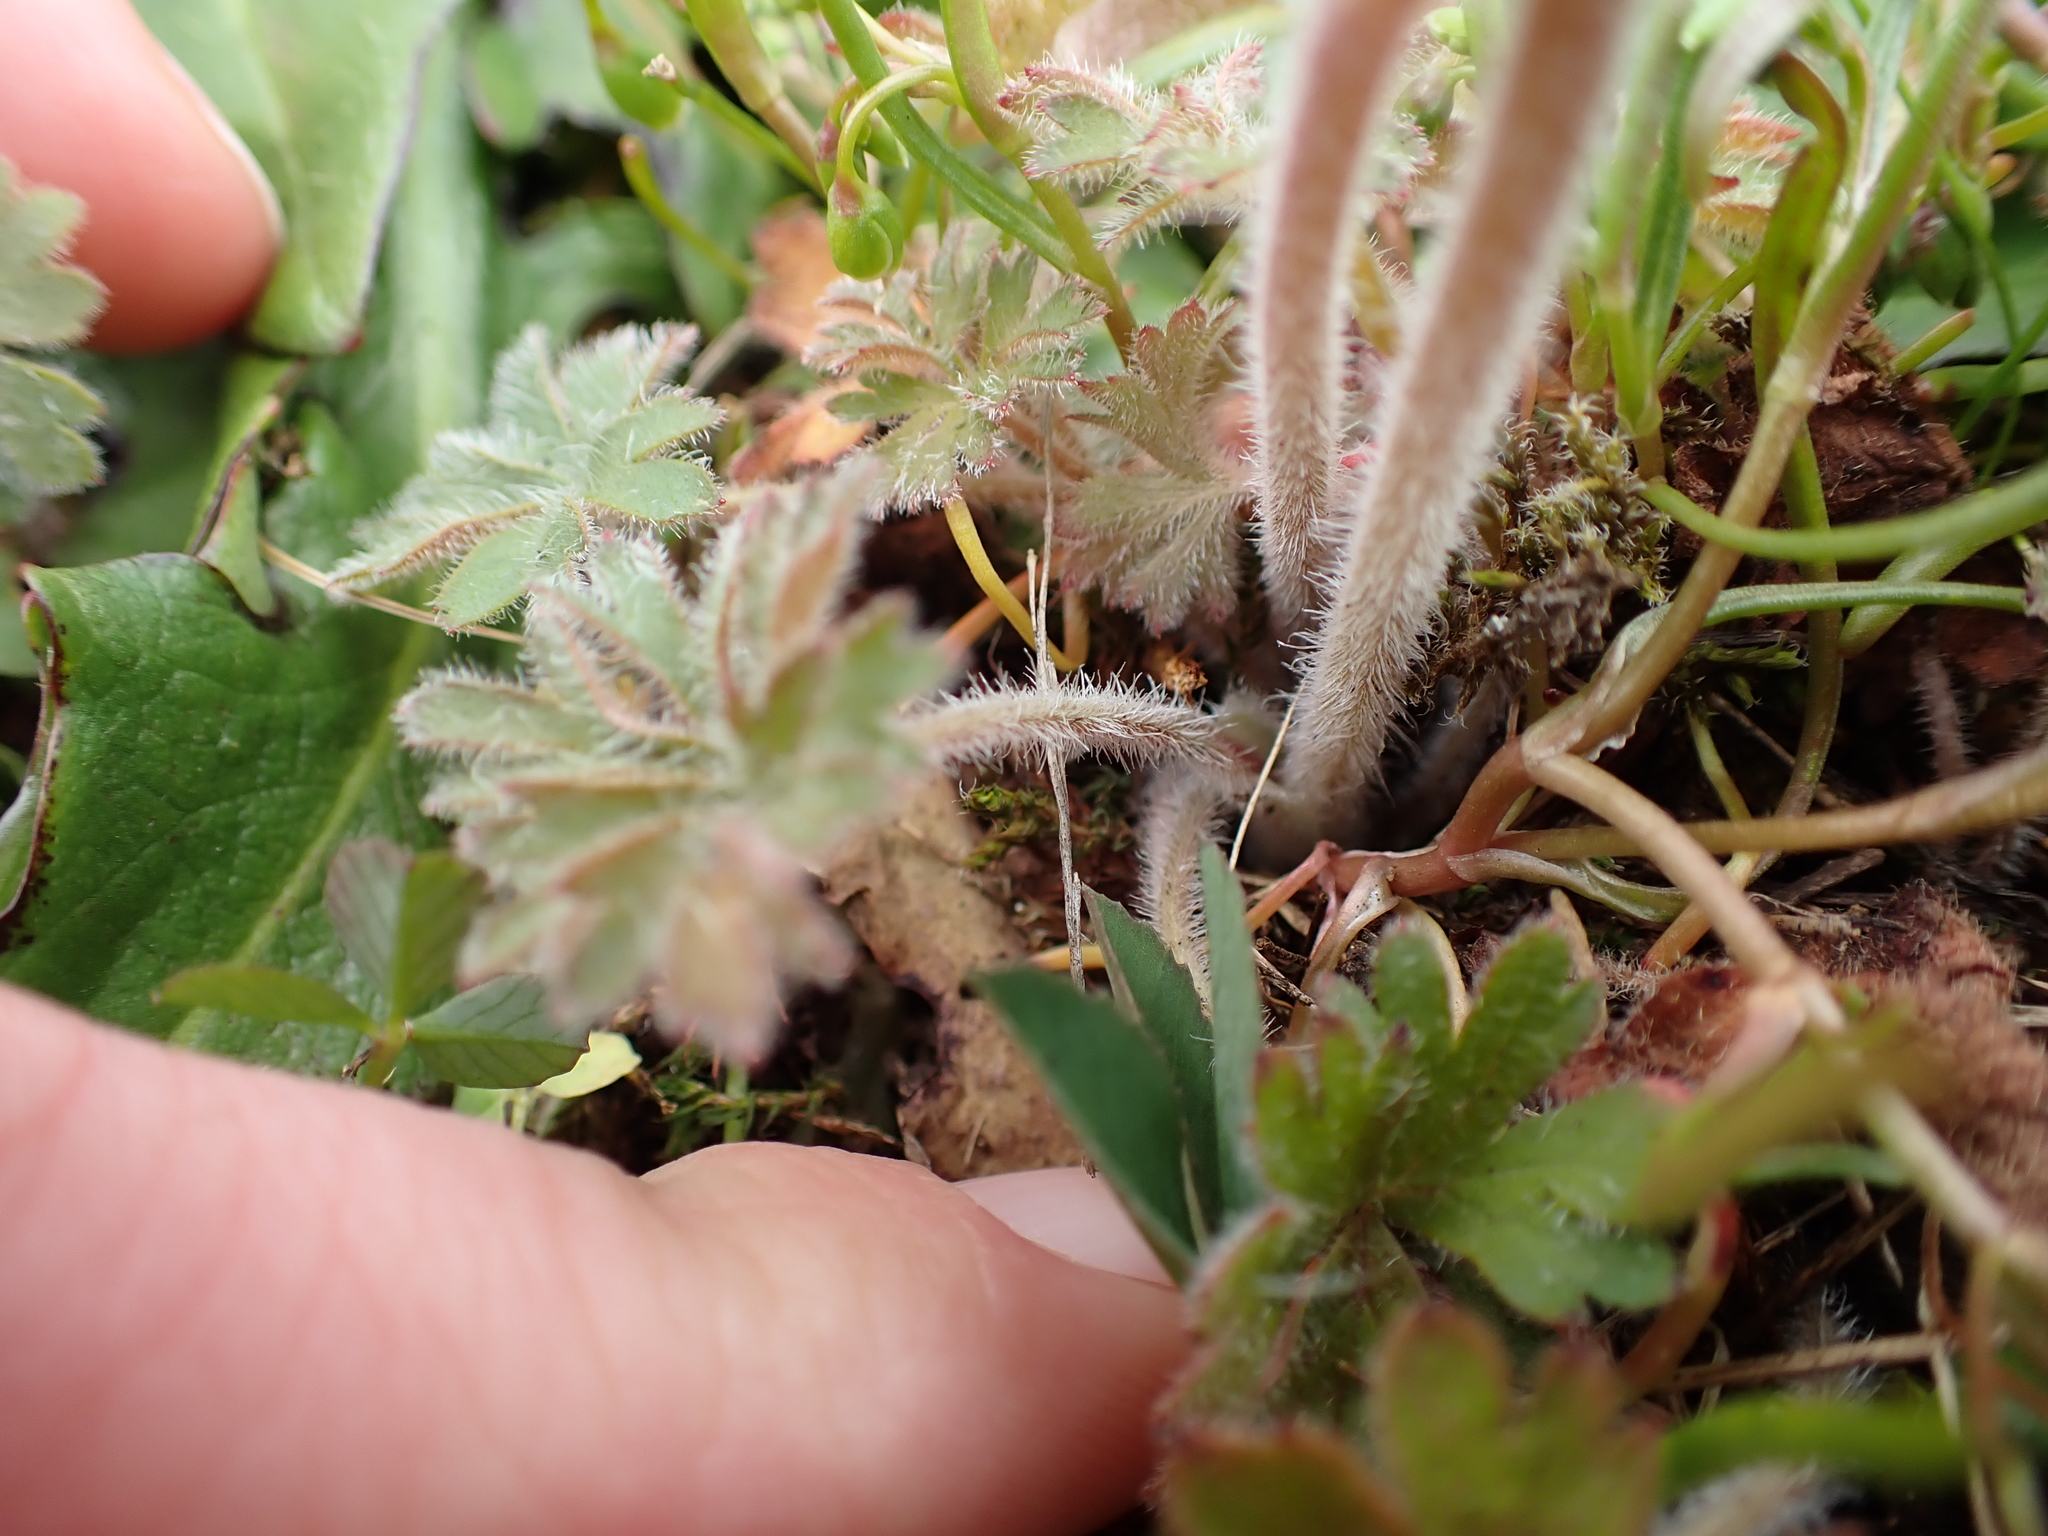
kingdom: Plantae
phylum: Tracheophyta
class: Magnoliopsida
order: Saxifragales
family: Saxifragaceae
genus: Lithophragma
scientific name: Lithophragma parviflorum
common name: Small-flowered fringe-cup
